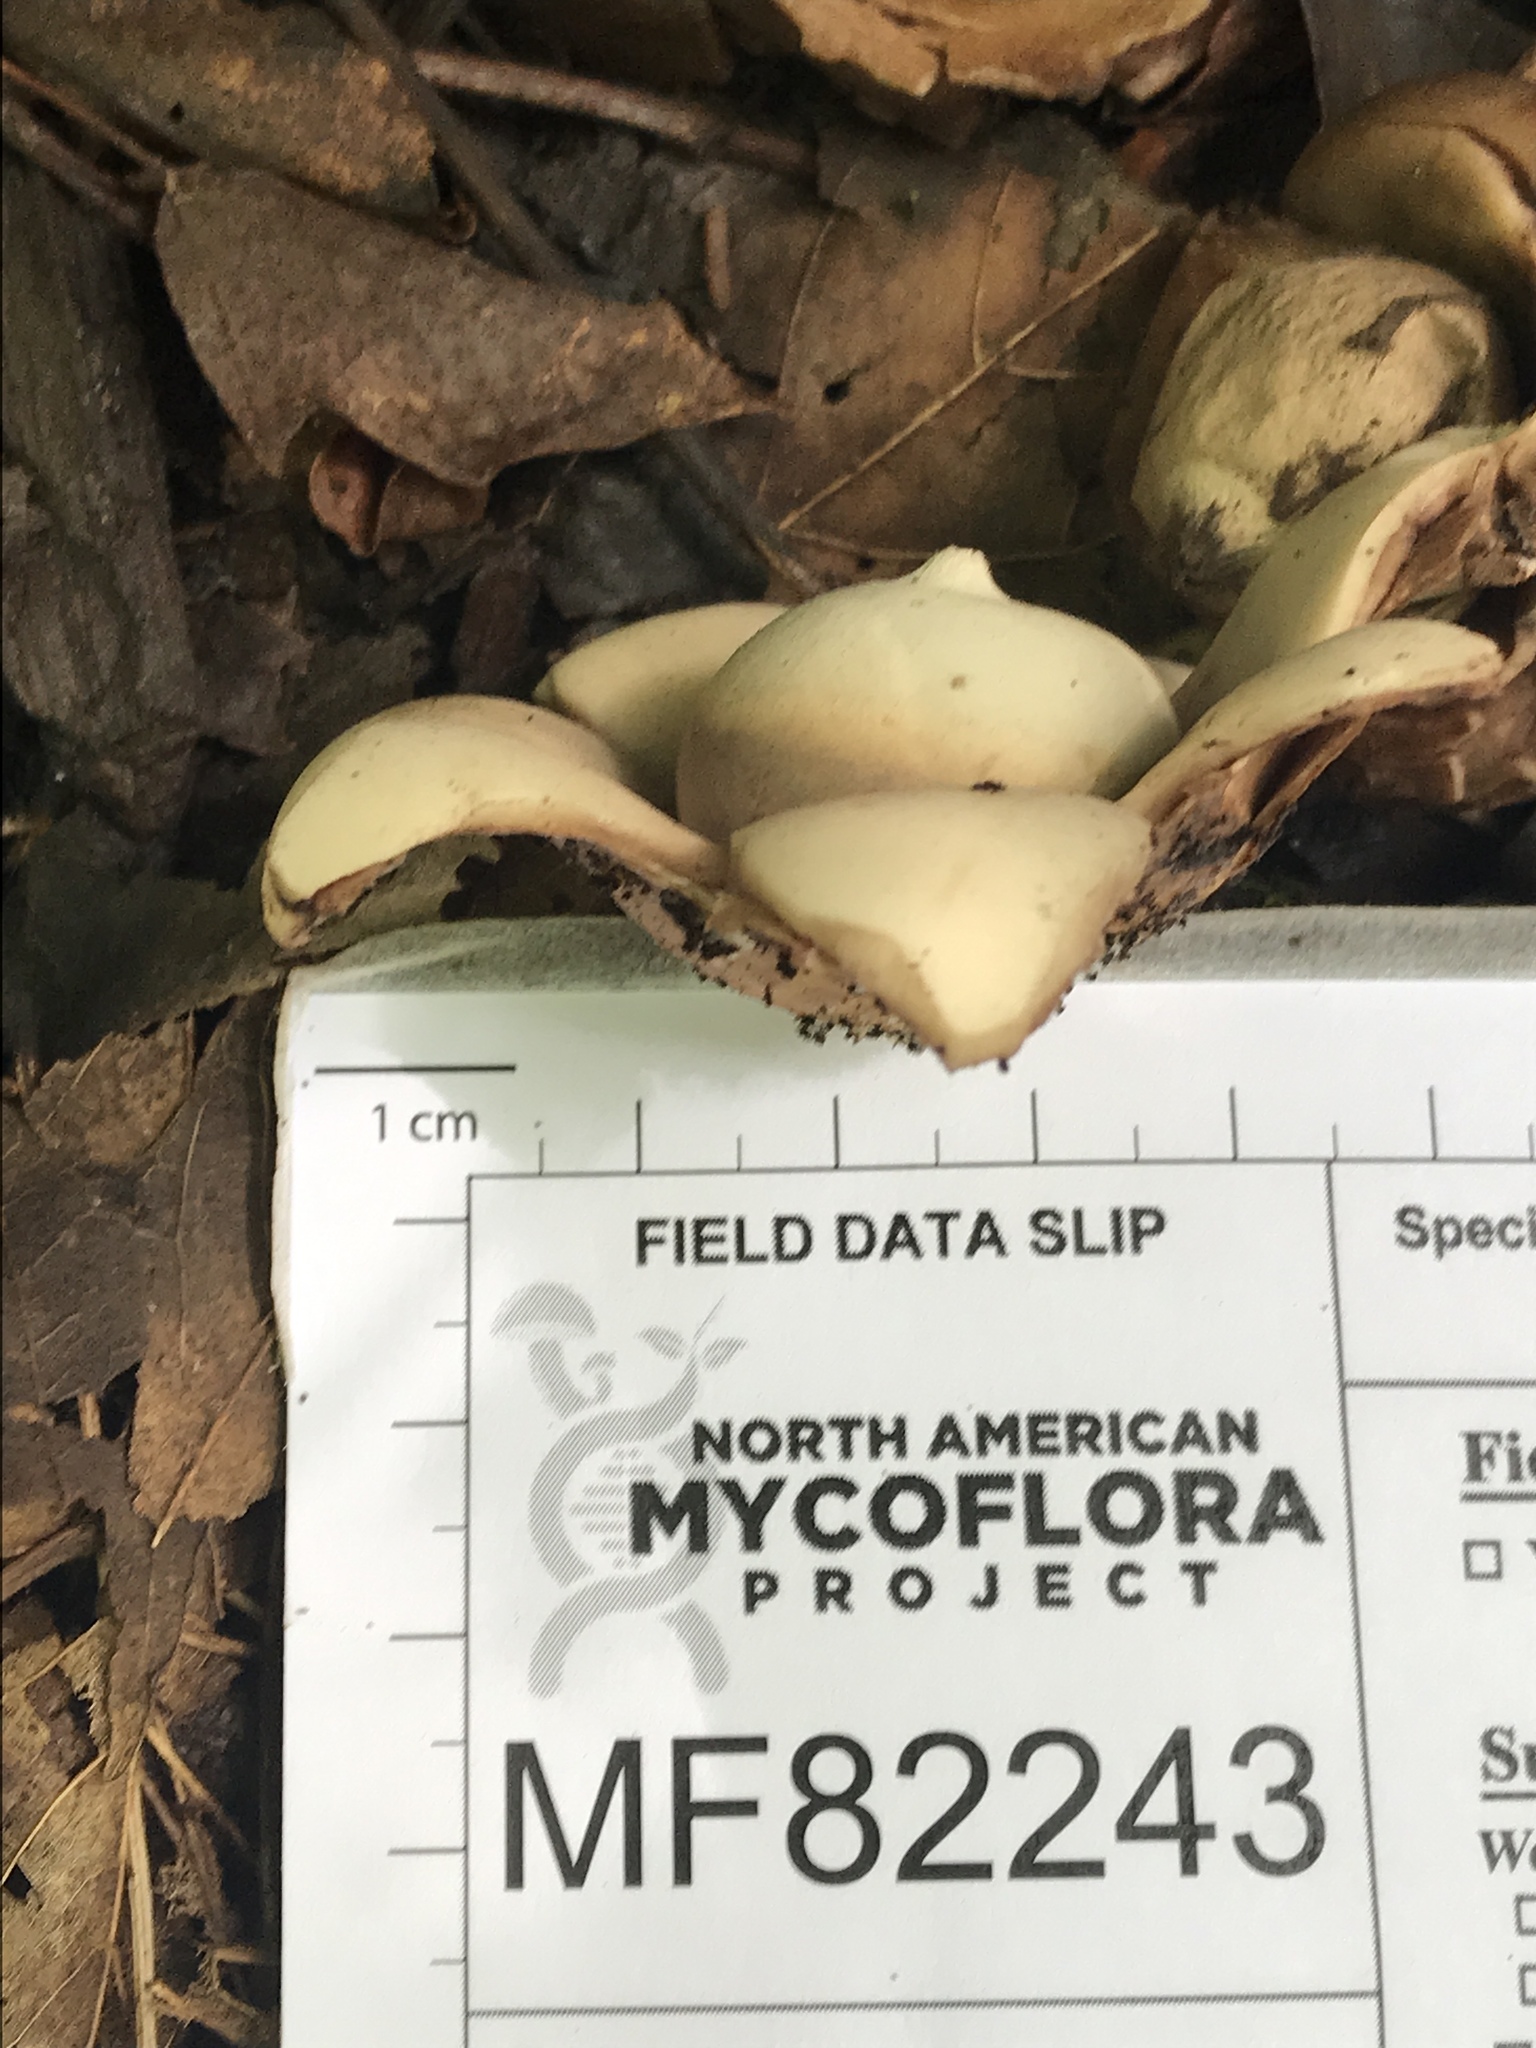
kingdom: Fungi
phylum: Basidiomycota
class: Agaricomycetes
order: Geastrales
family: Geastraceae
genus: Geastrum
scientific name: Geastrum triplex
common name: Collared earthstar
